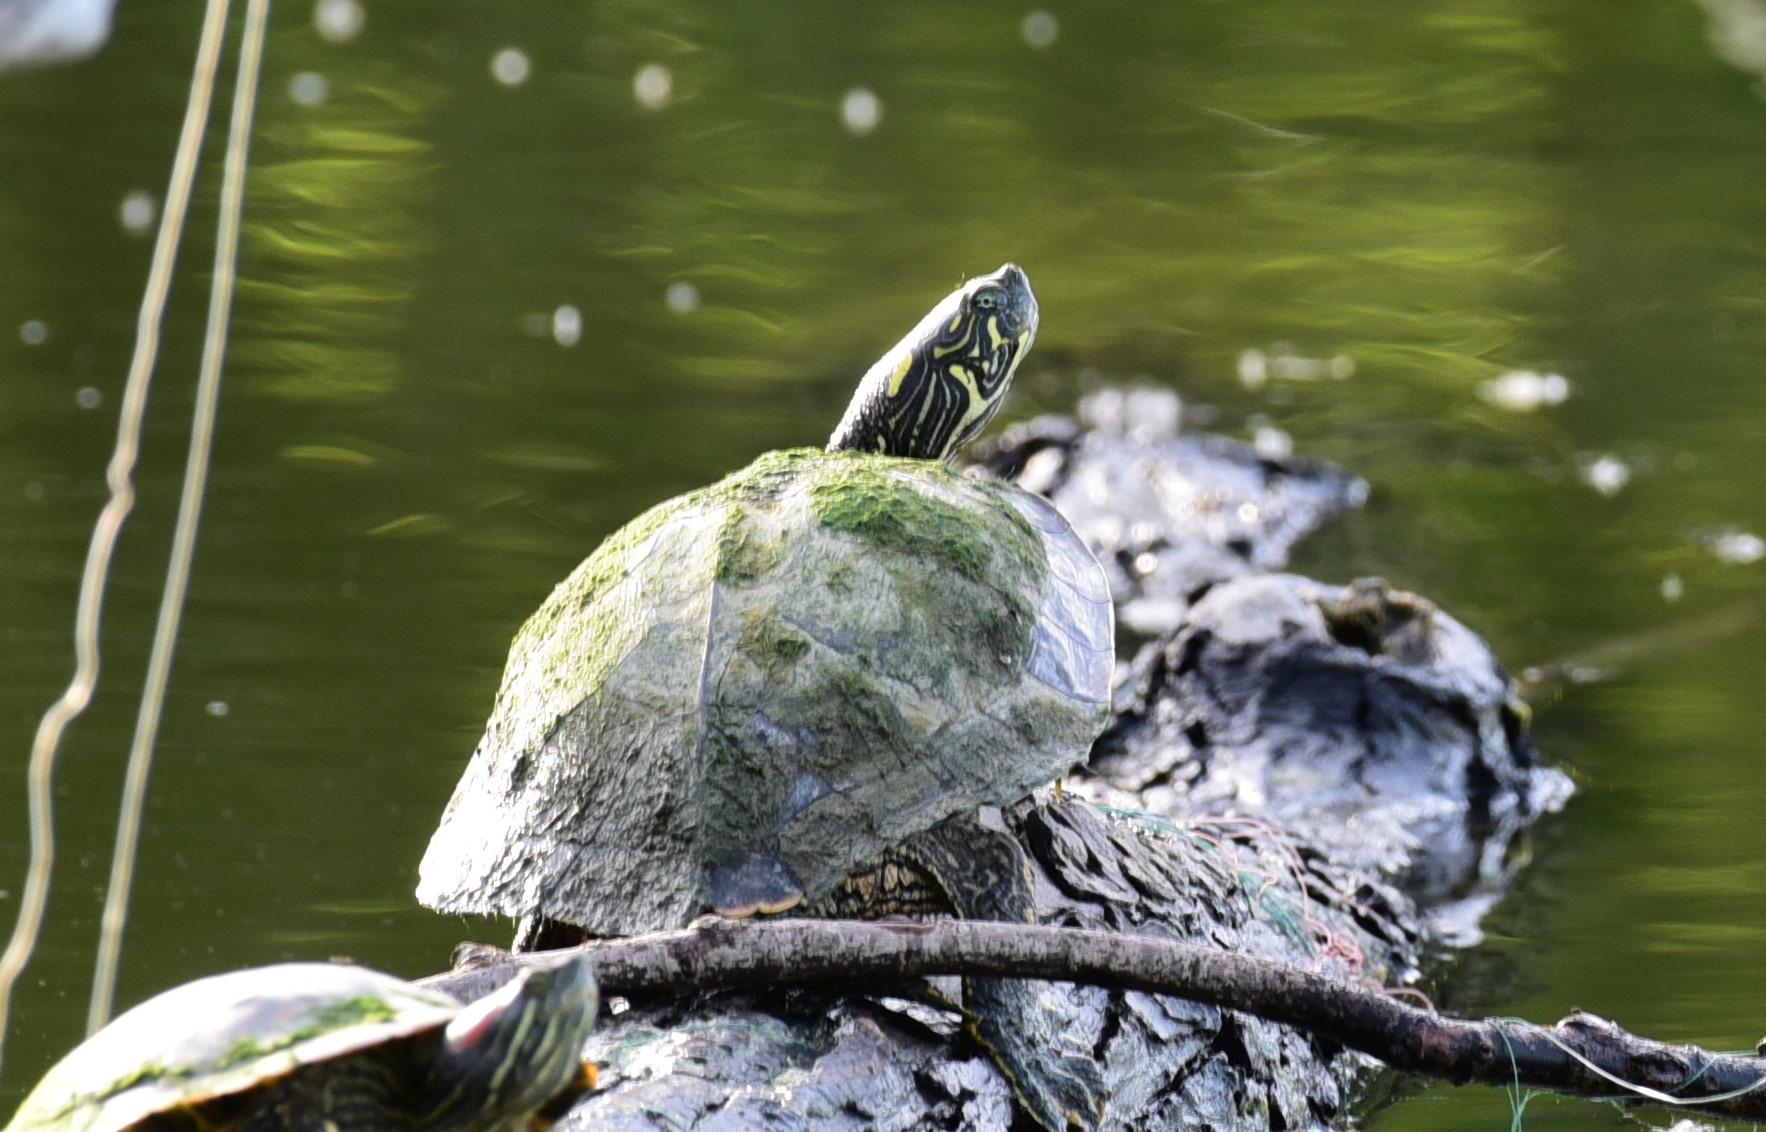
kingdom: Animalia
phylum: Chordata
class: Testudines
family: Emydidae
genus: Pseudemys
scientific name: Pseudemys texana
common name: Texas river cooter
